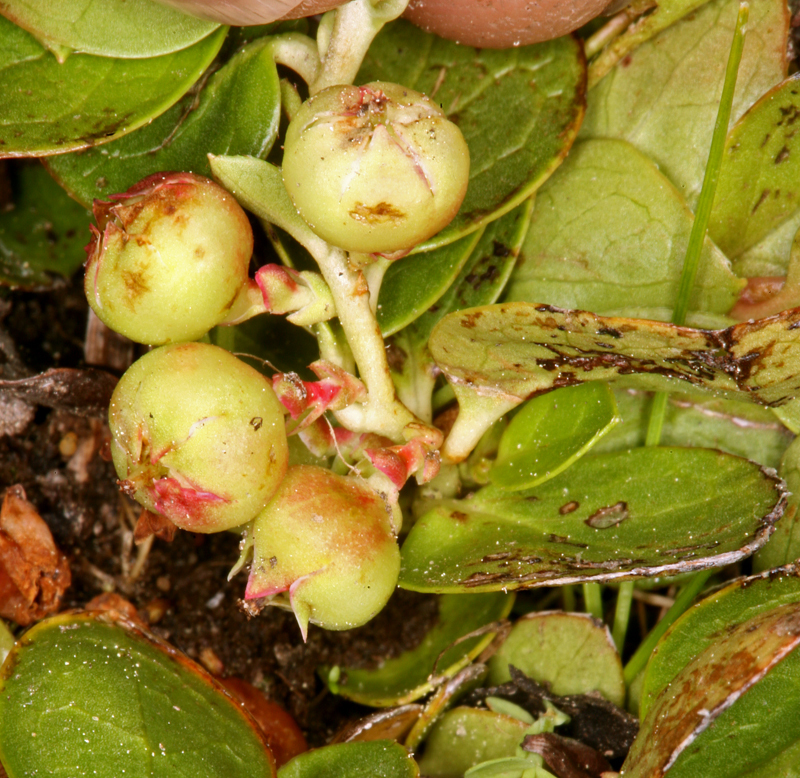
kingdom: Plantae
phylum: Tracheophyta
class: Magnoliopsida
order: Ericales
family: Ericaceae
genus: Gaultheria
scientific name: Gaultheria humifusa
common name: Alpine wintergreen
